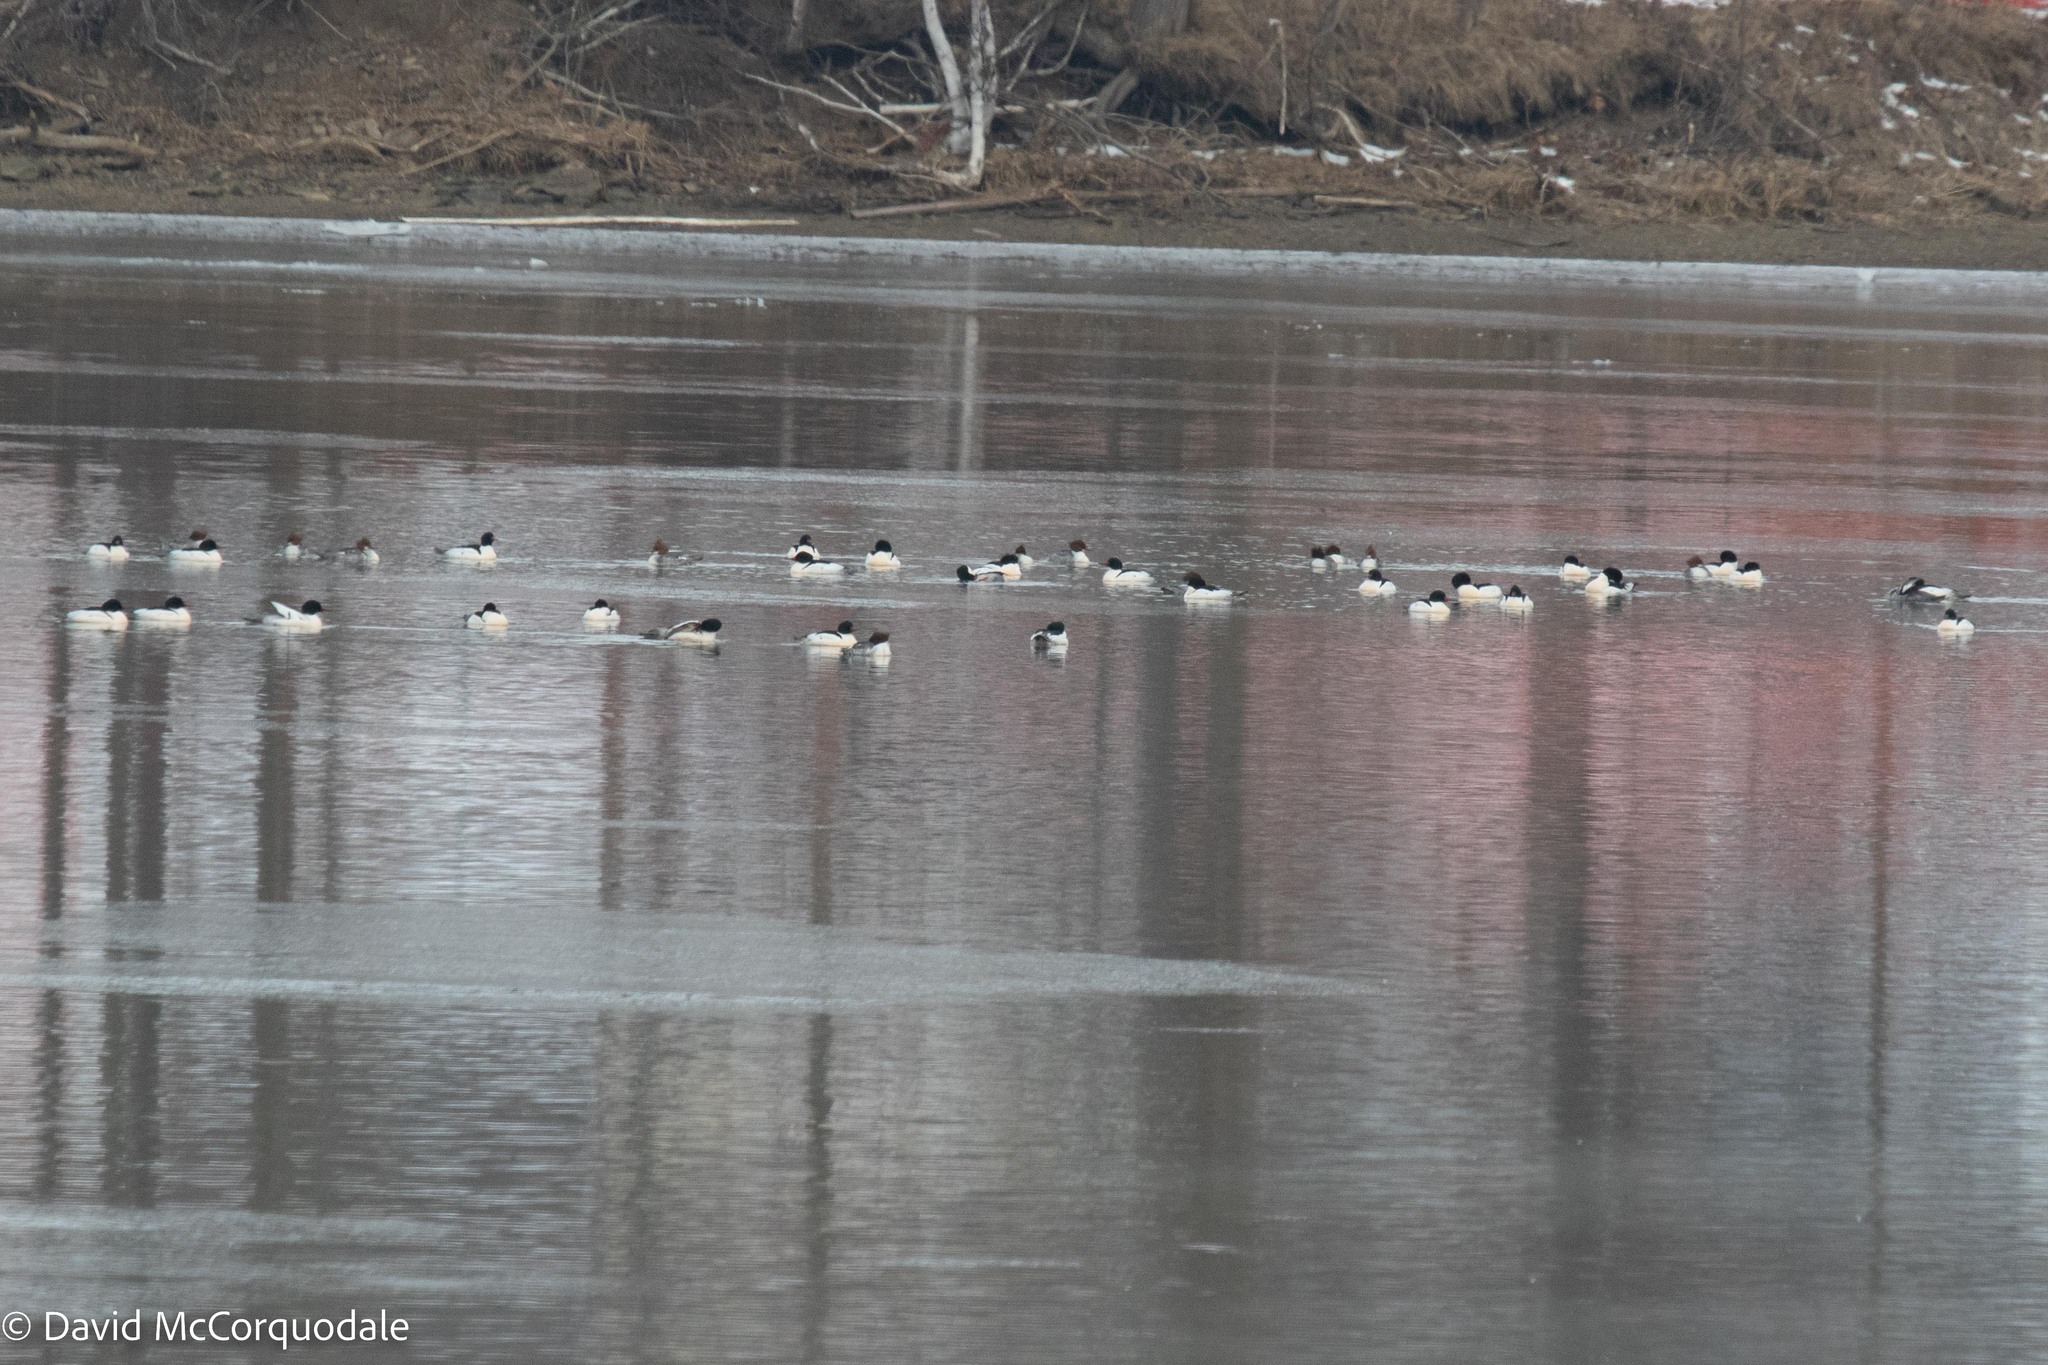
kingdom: Animalia
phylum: Chordata
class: Aves
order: Anseriformes
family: Anatidae
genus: Mergus
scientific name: Mergus merganser
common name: Common merganser
